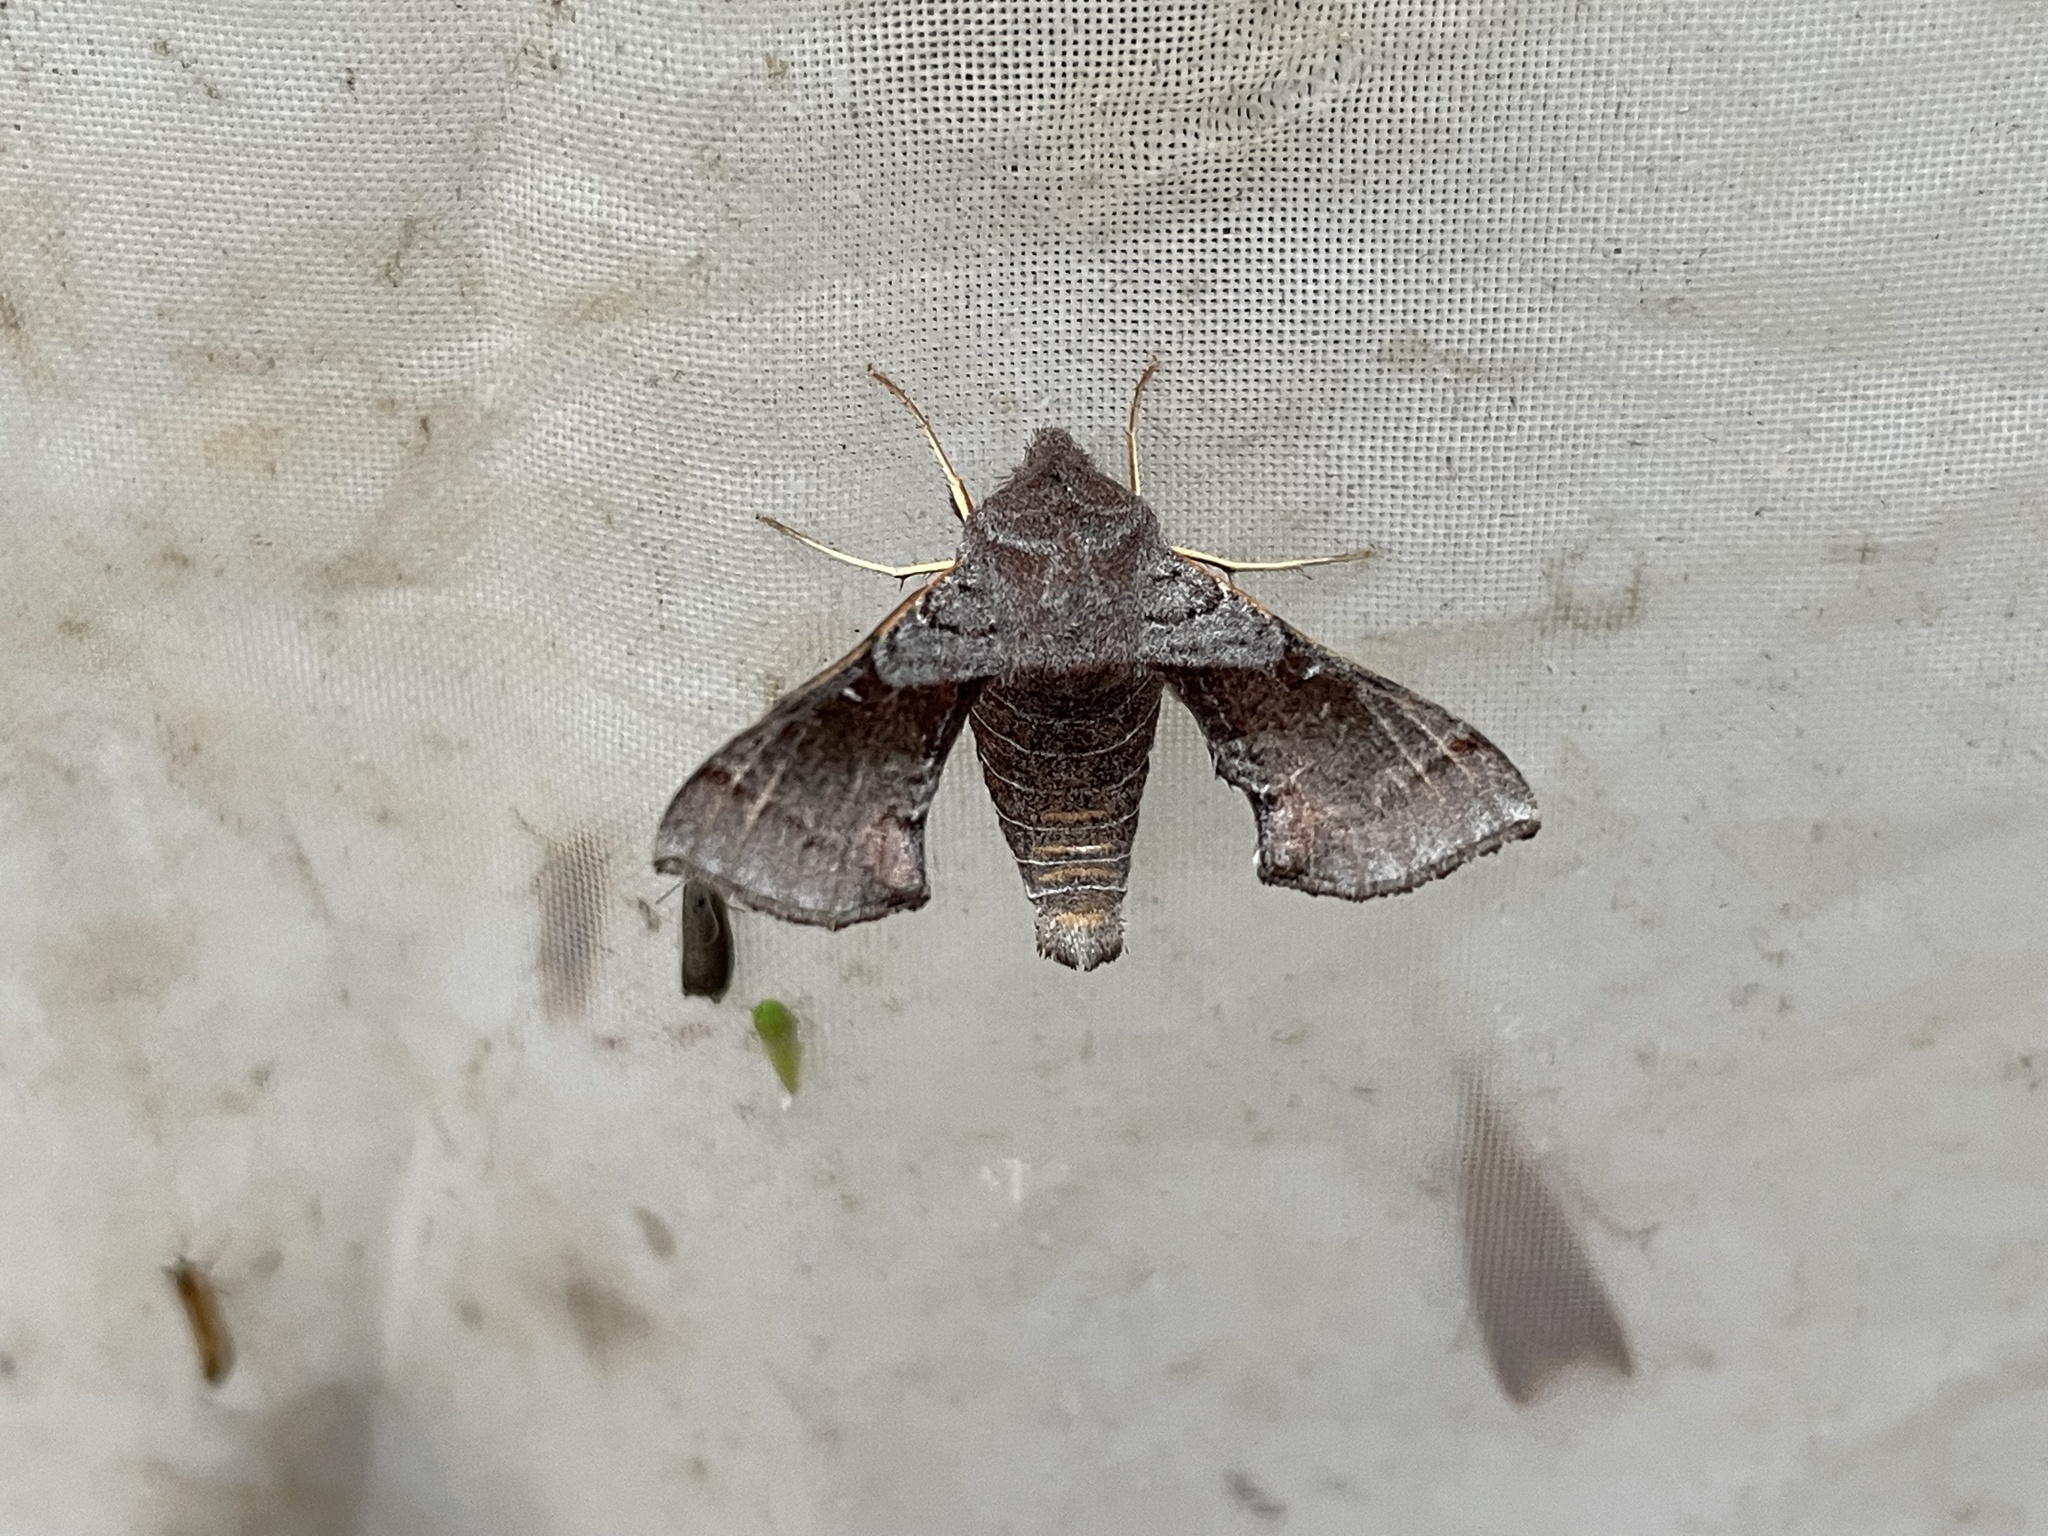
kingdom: Animalia
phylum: Arthropoda
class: Insecta
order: Lepidoptera
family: Sphingidae
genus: Sphingonaepiopsis
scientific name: Sphingonaepiopsis ansorgei
